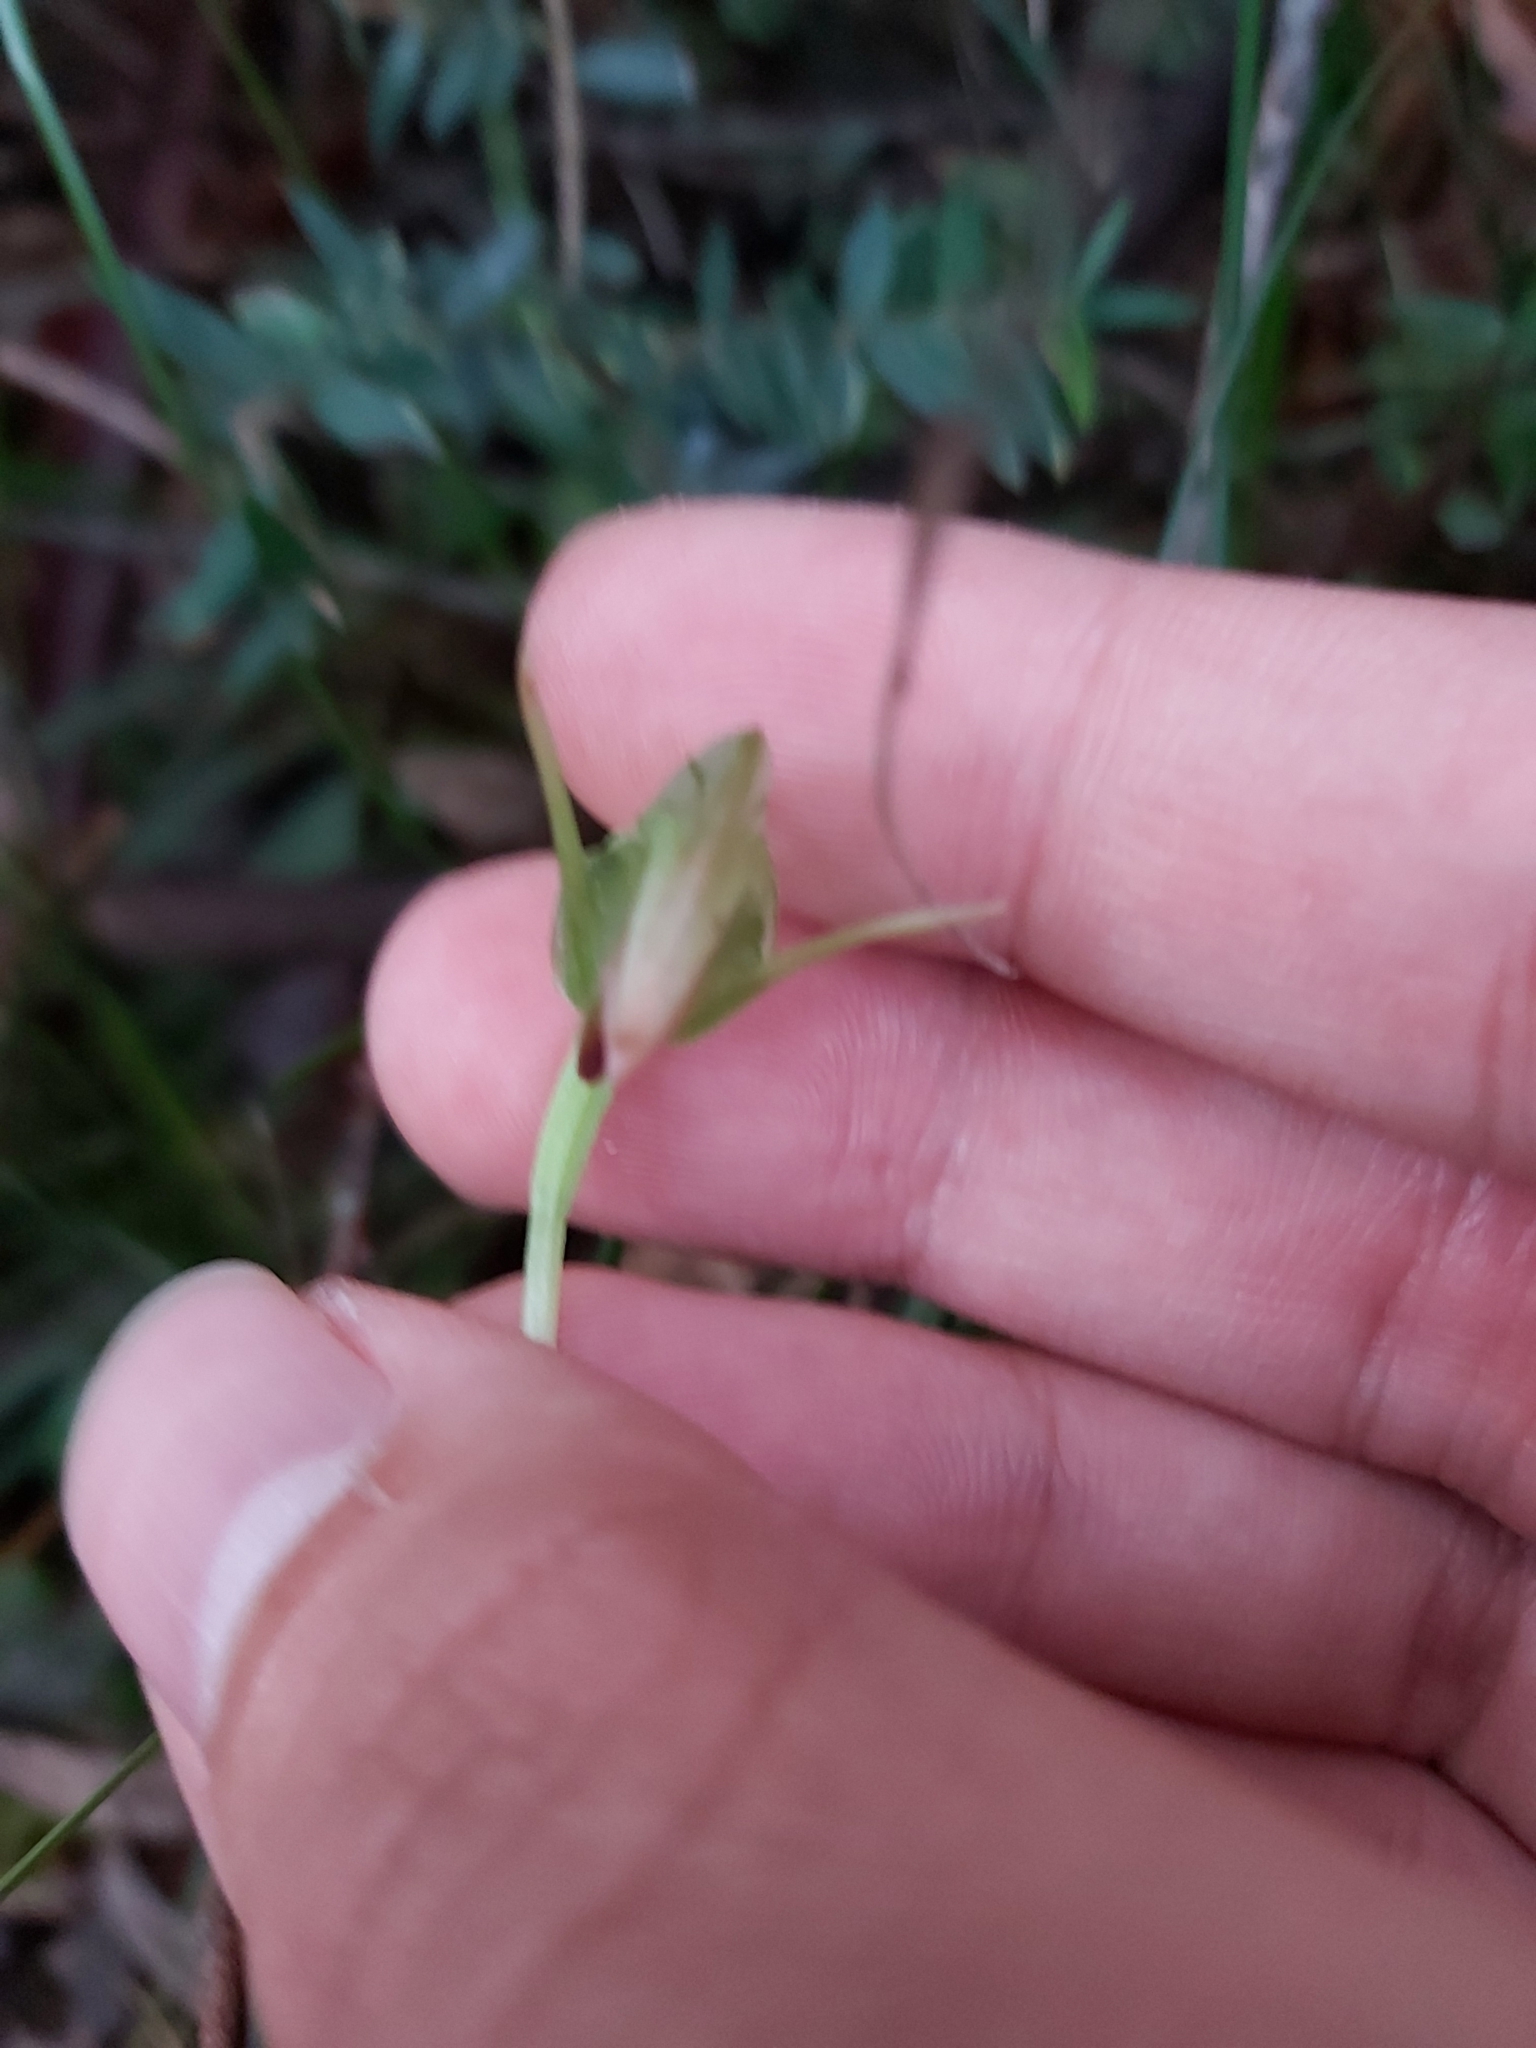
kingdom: Plantae
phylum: Tracheophyta
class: Liliopsida
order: Asparagales
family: Orchidaceae
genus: Pterostylis
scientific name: Pterostylis nutans
